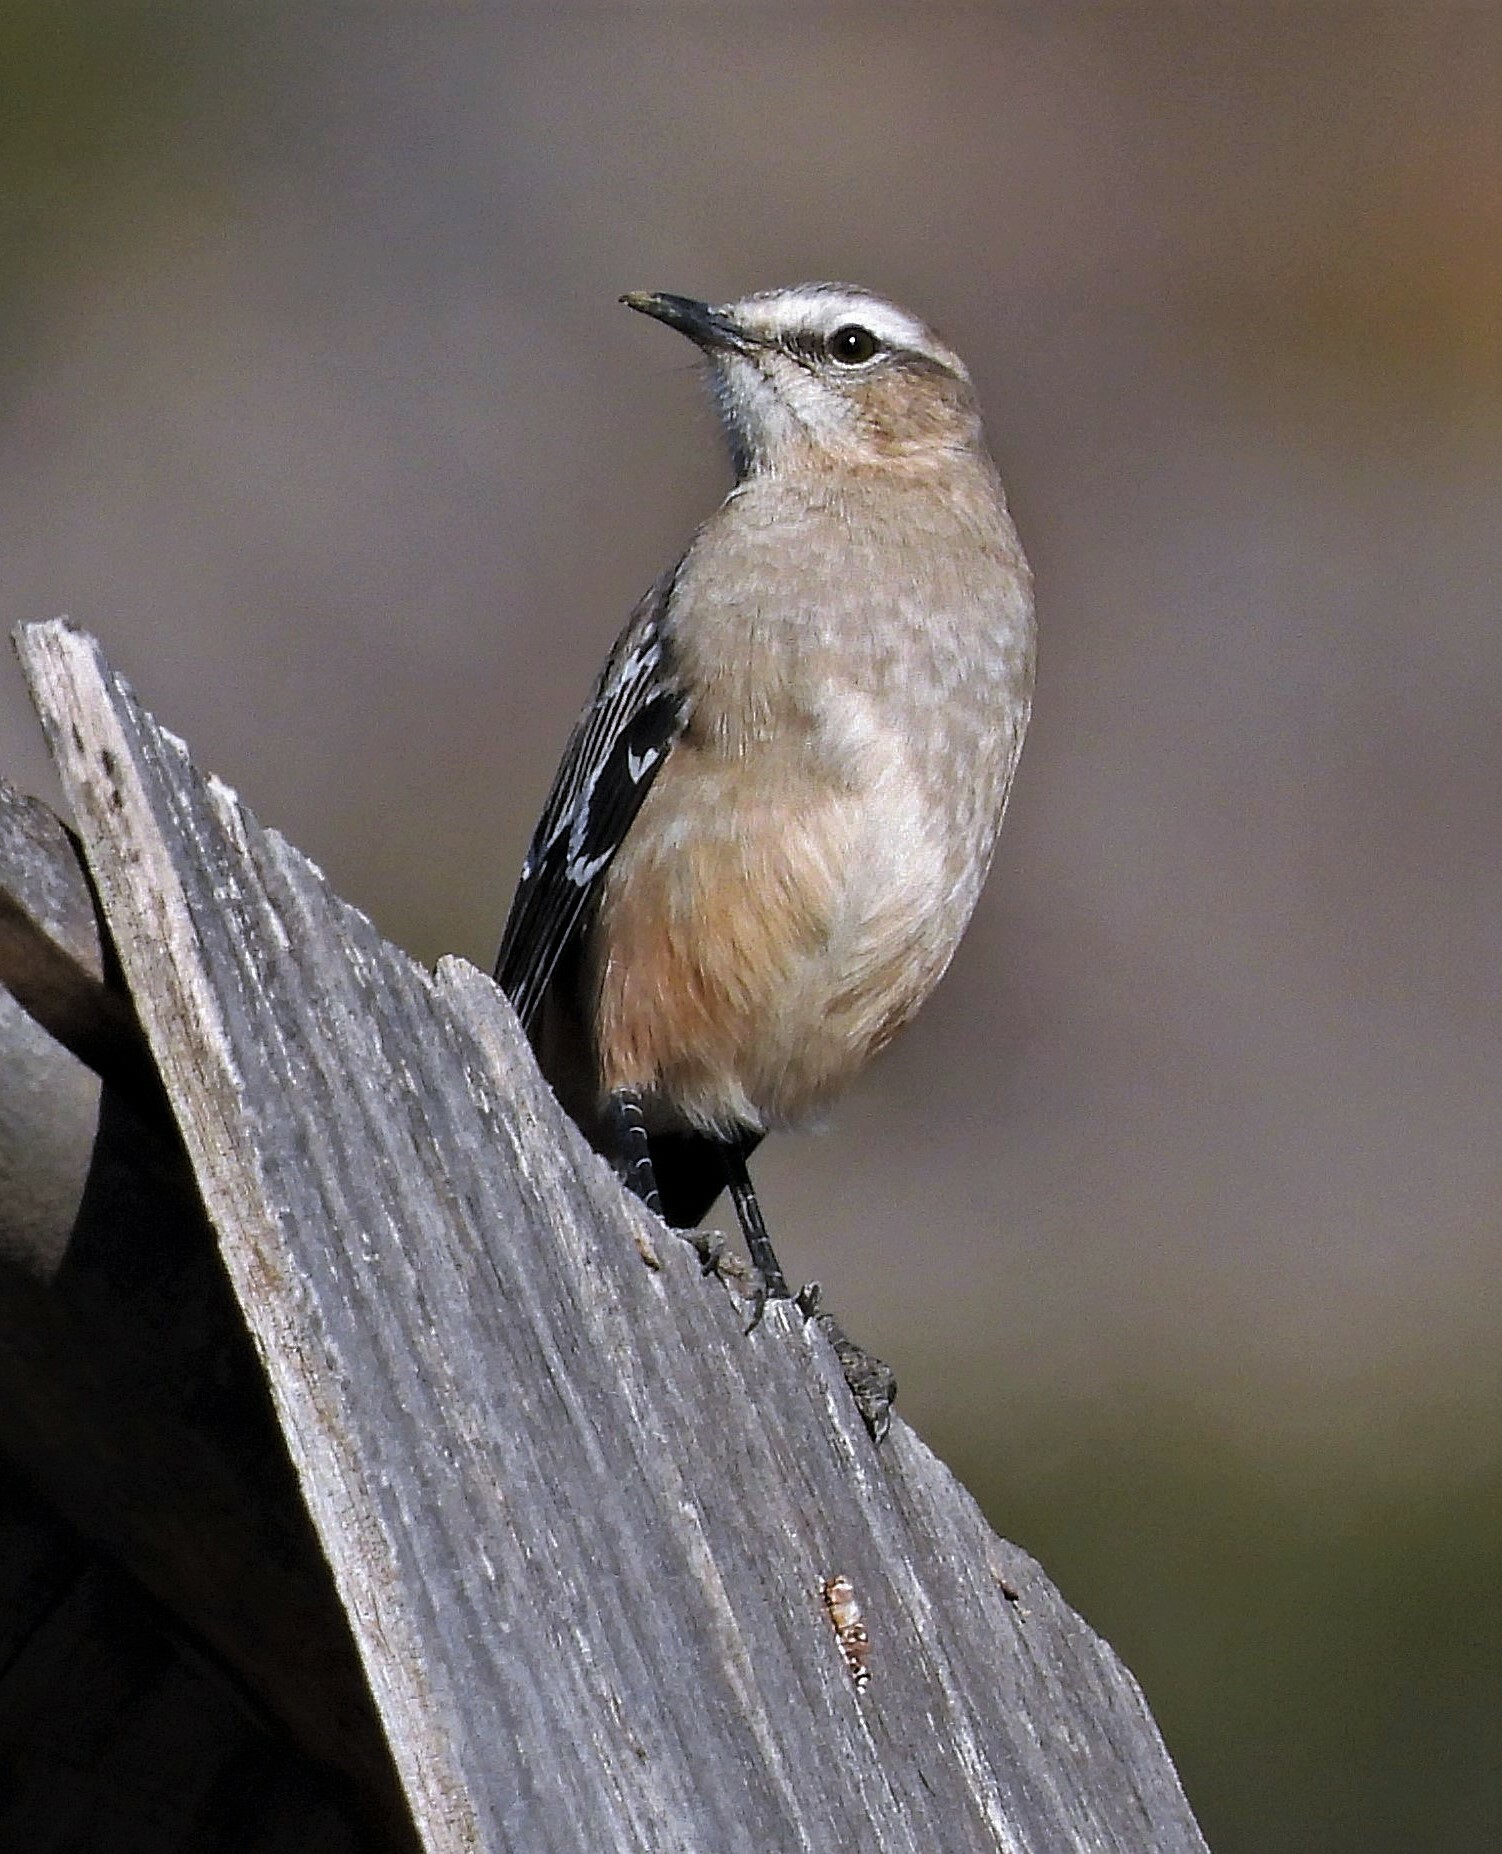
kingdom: Animalia
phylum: Chordata
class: Aves
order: Passeriformes
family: Mimidae
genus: Mimus
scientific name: Mimus patagonicus
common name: Patagonian mockingbird
